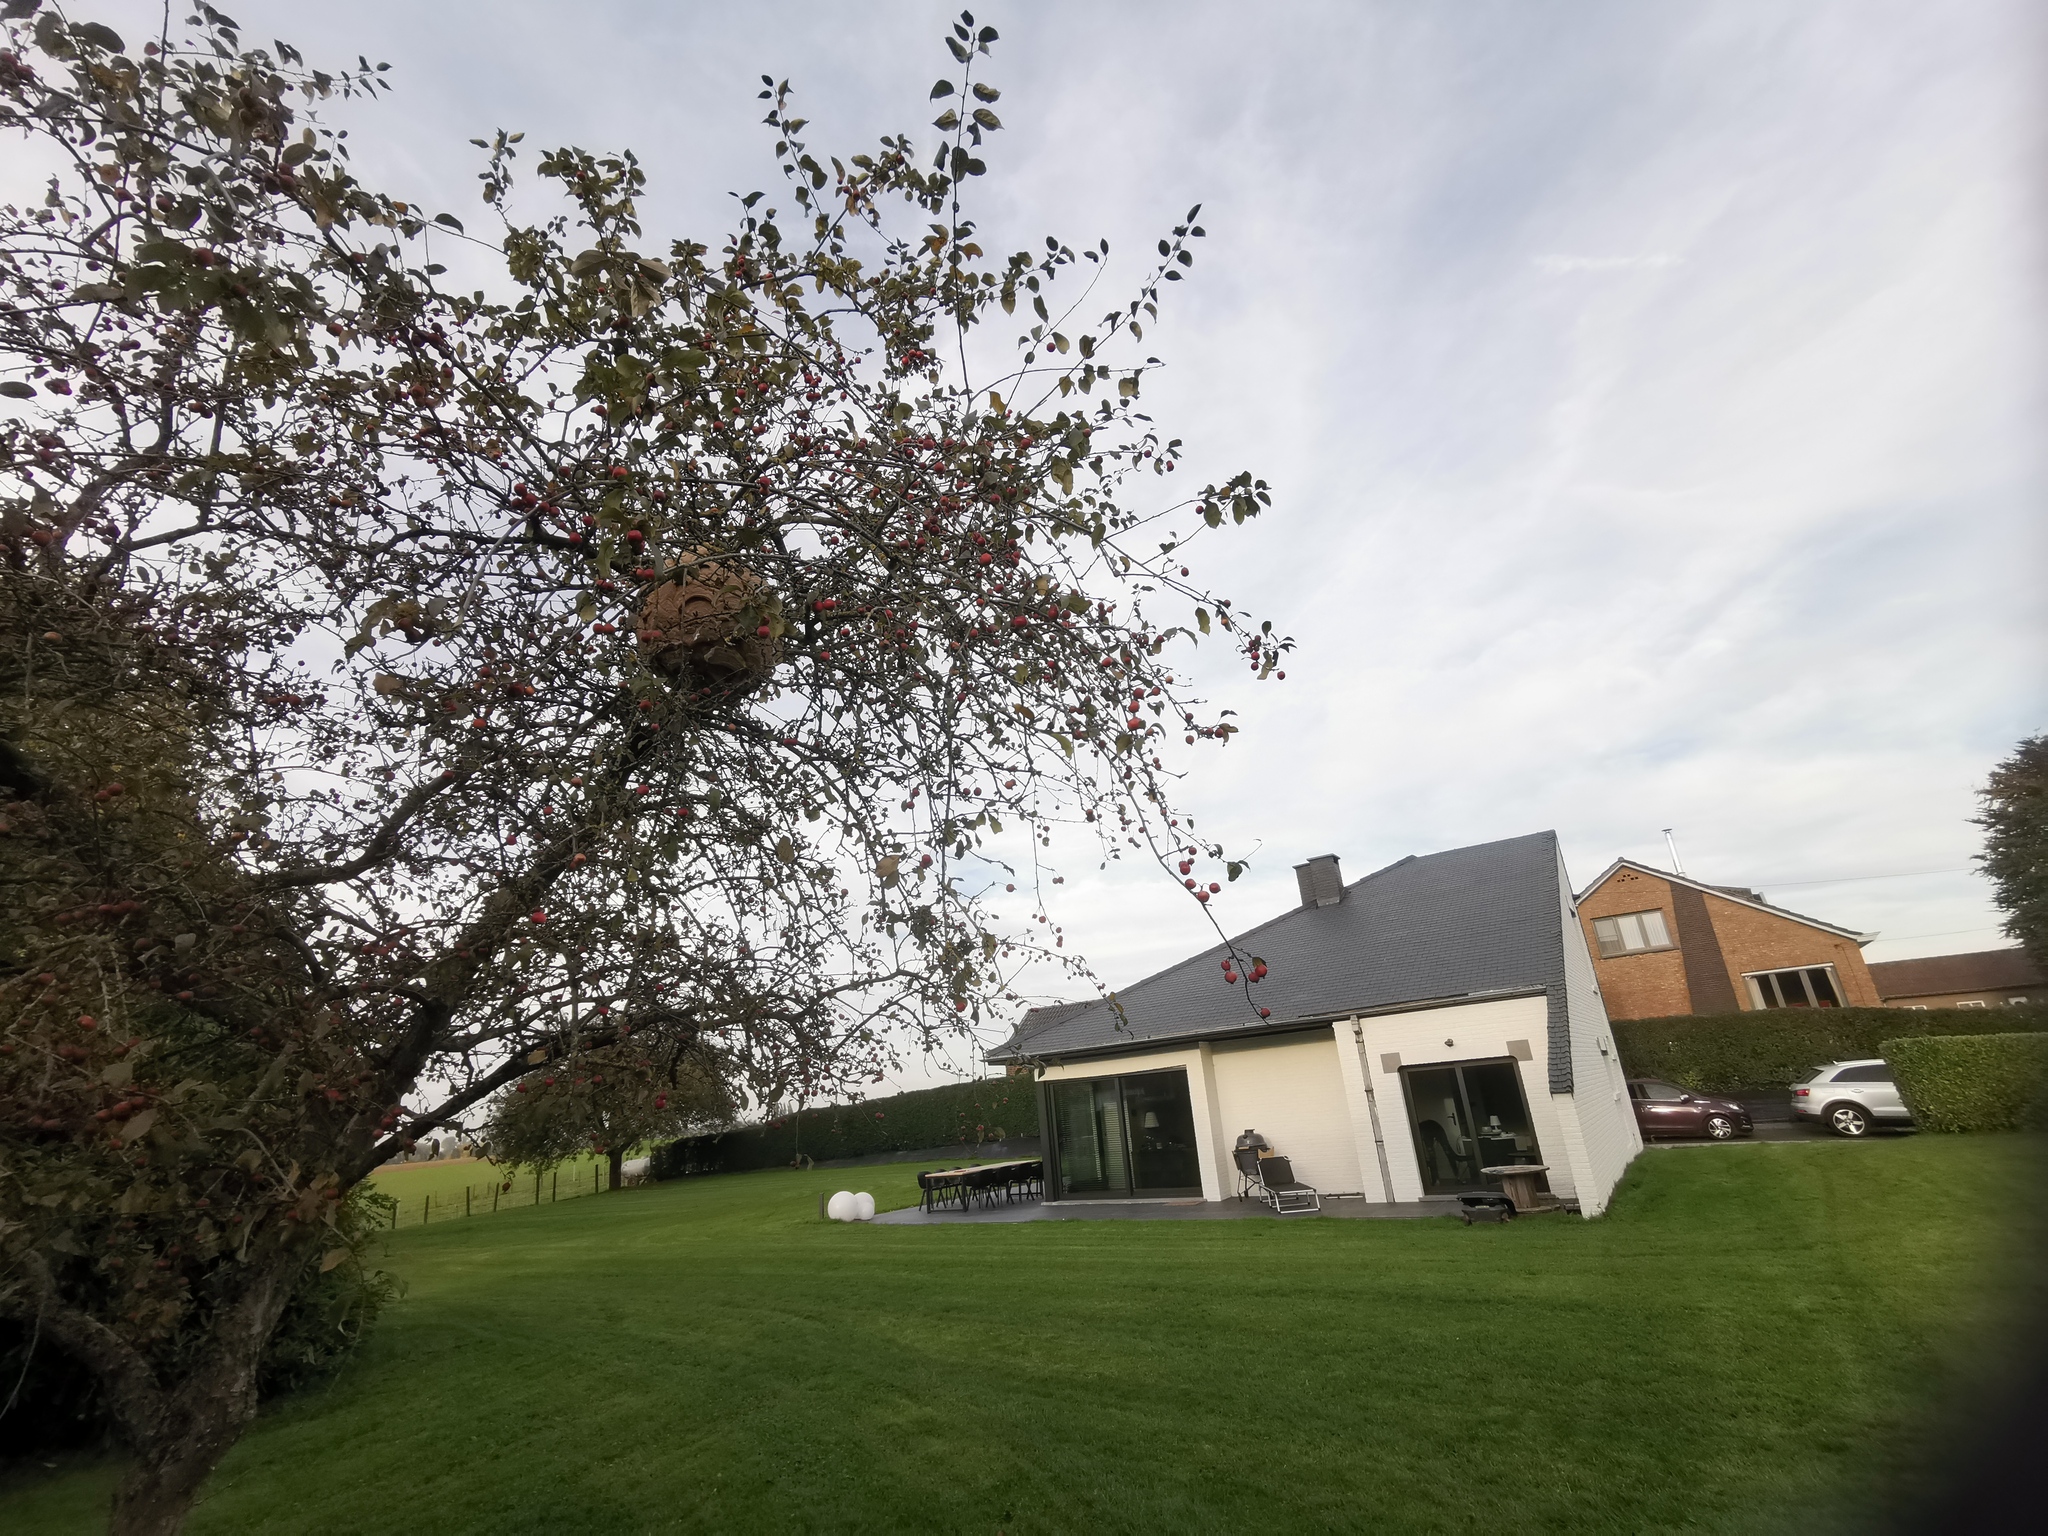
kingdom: Animalia
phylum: Arthropoda
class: Insecta
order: Hymenoptera
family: Vespidae
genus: Vespa
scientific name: Vespa velutina
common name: Asian hornet
